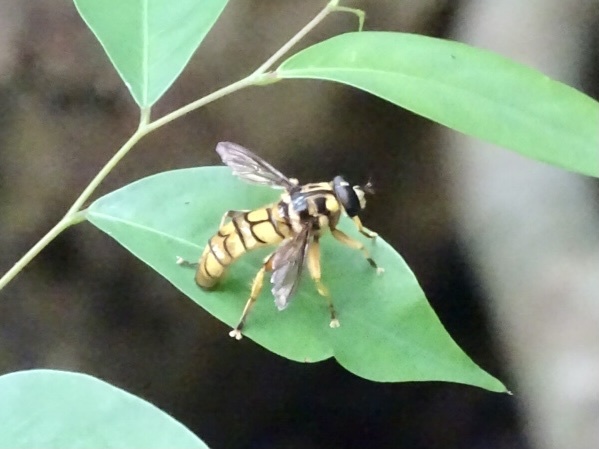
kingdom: Animalia
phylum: Arthropoda
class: Insecta
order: Diptera
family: Syrphidae
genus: Milesia
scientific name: Milesia sinensis
